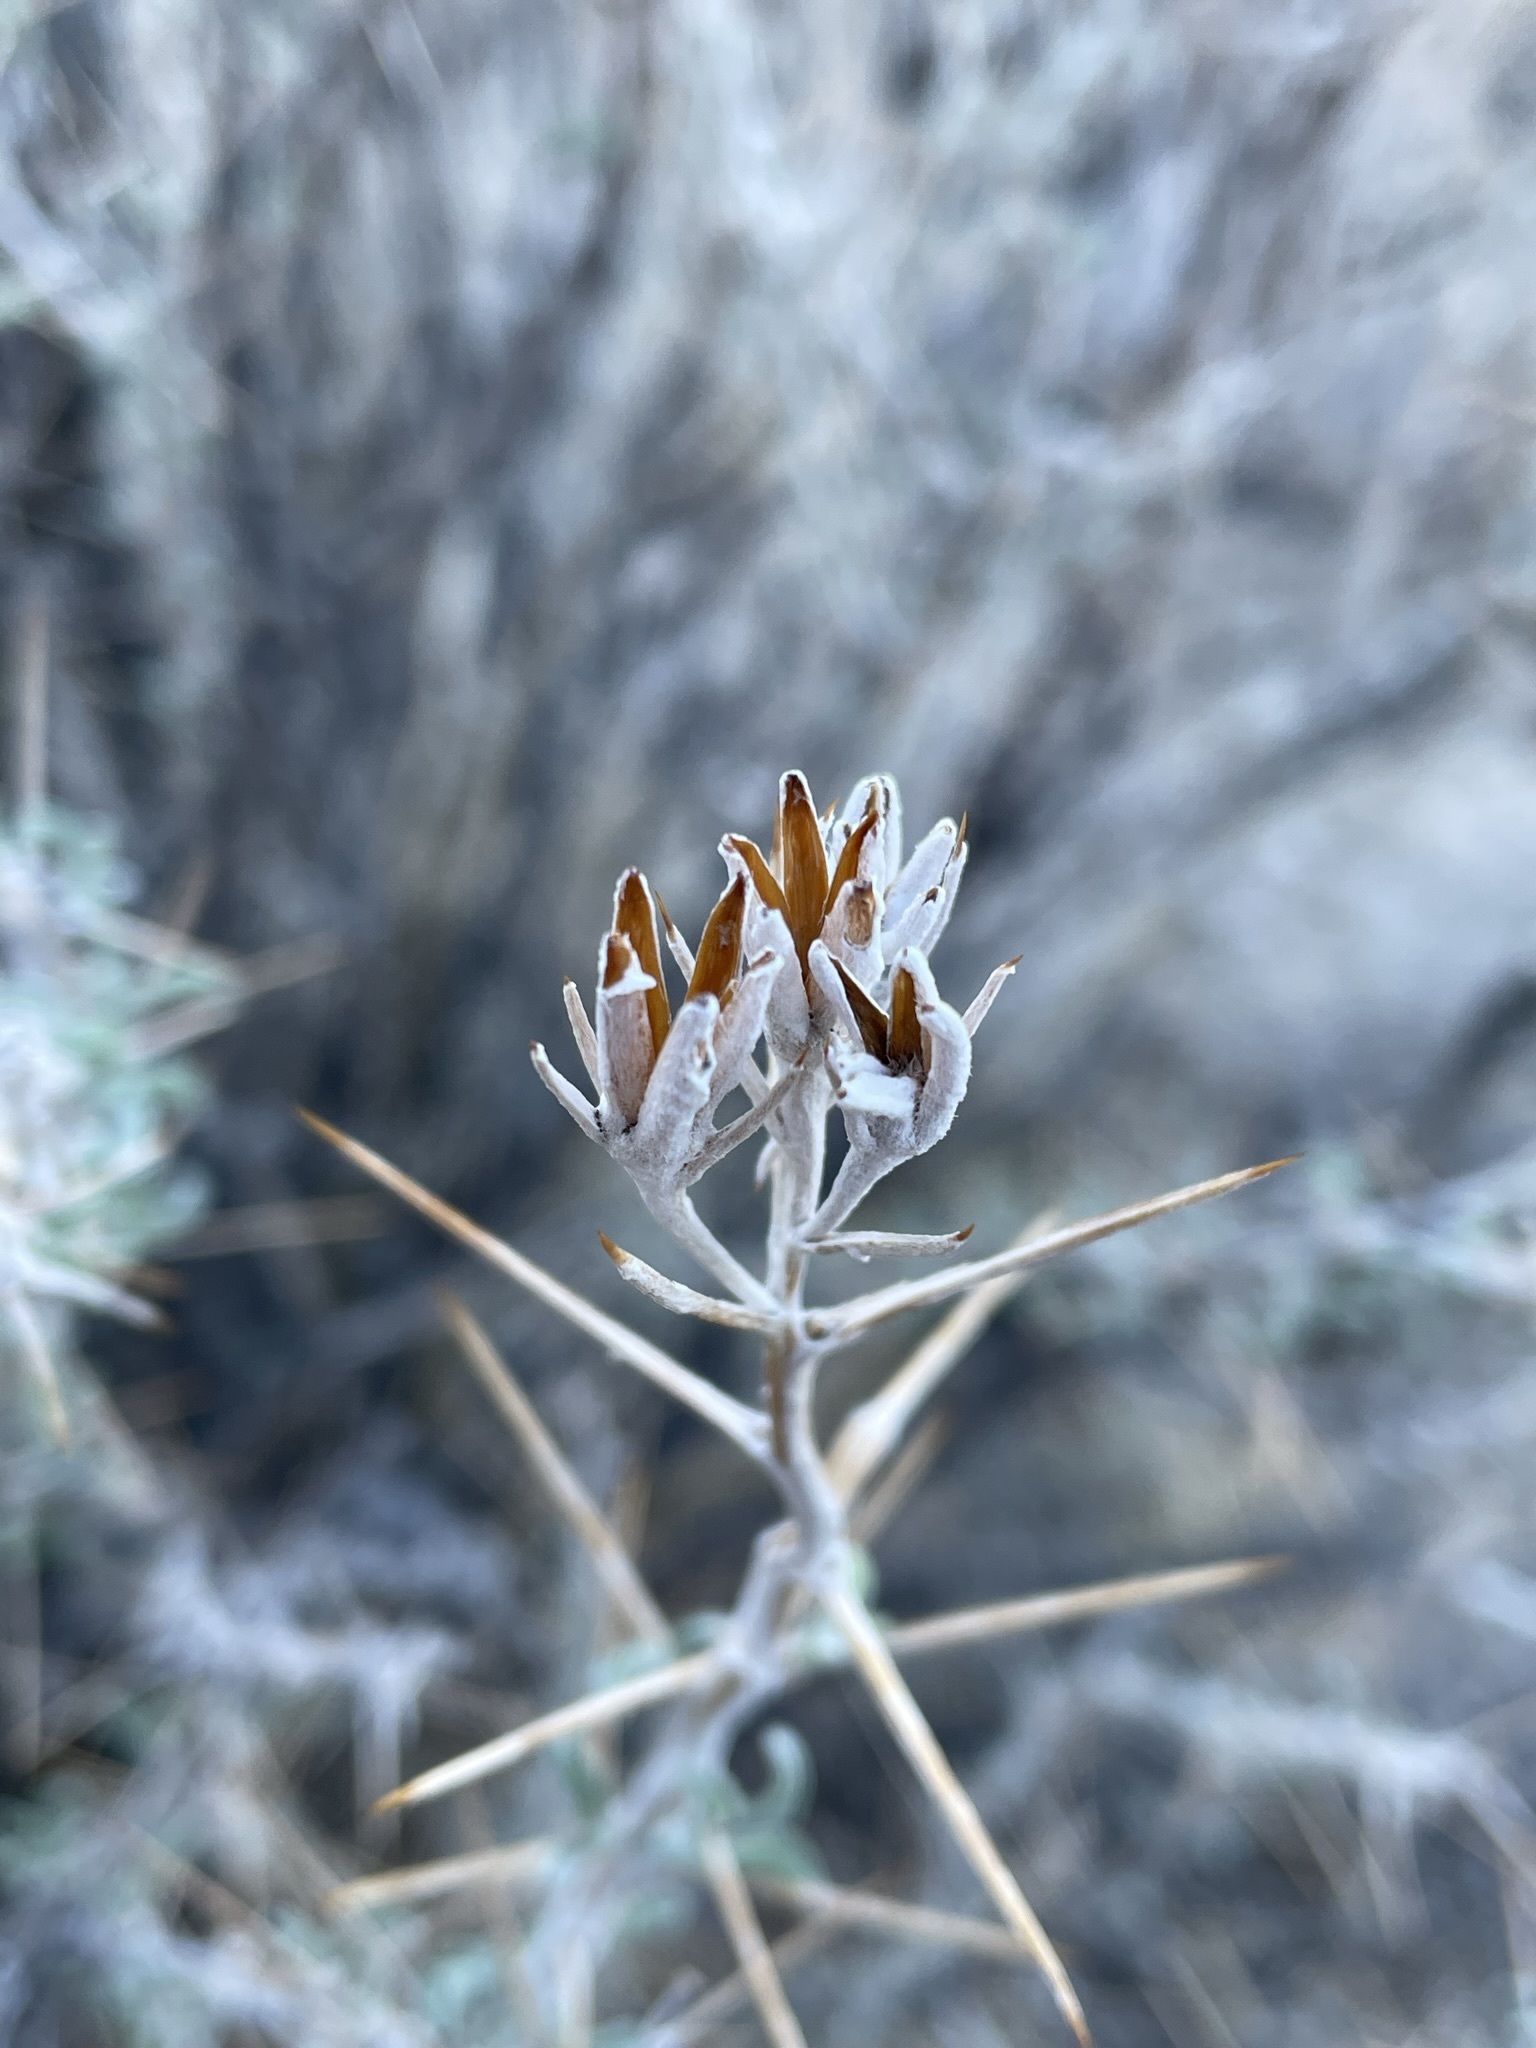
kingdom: Plantae
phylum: Tracheophyta
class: Magnoliopsida
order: Asterales
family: Asteraceae
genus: Tetradymia
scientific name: Tetradymia stenolepis
